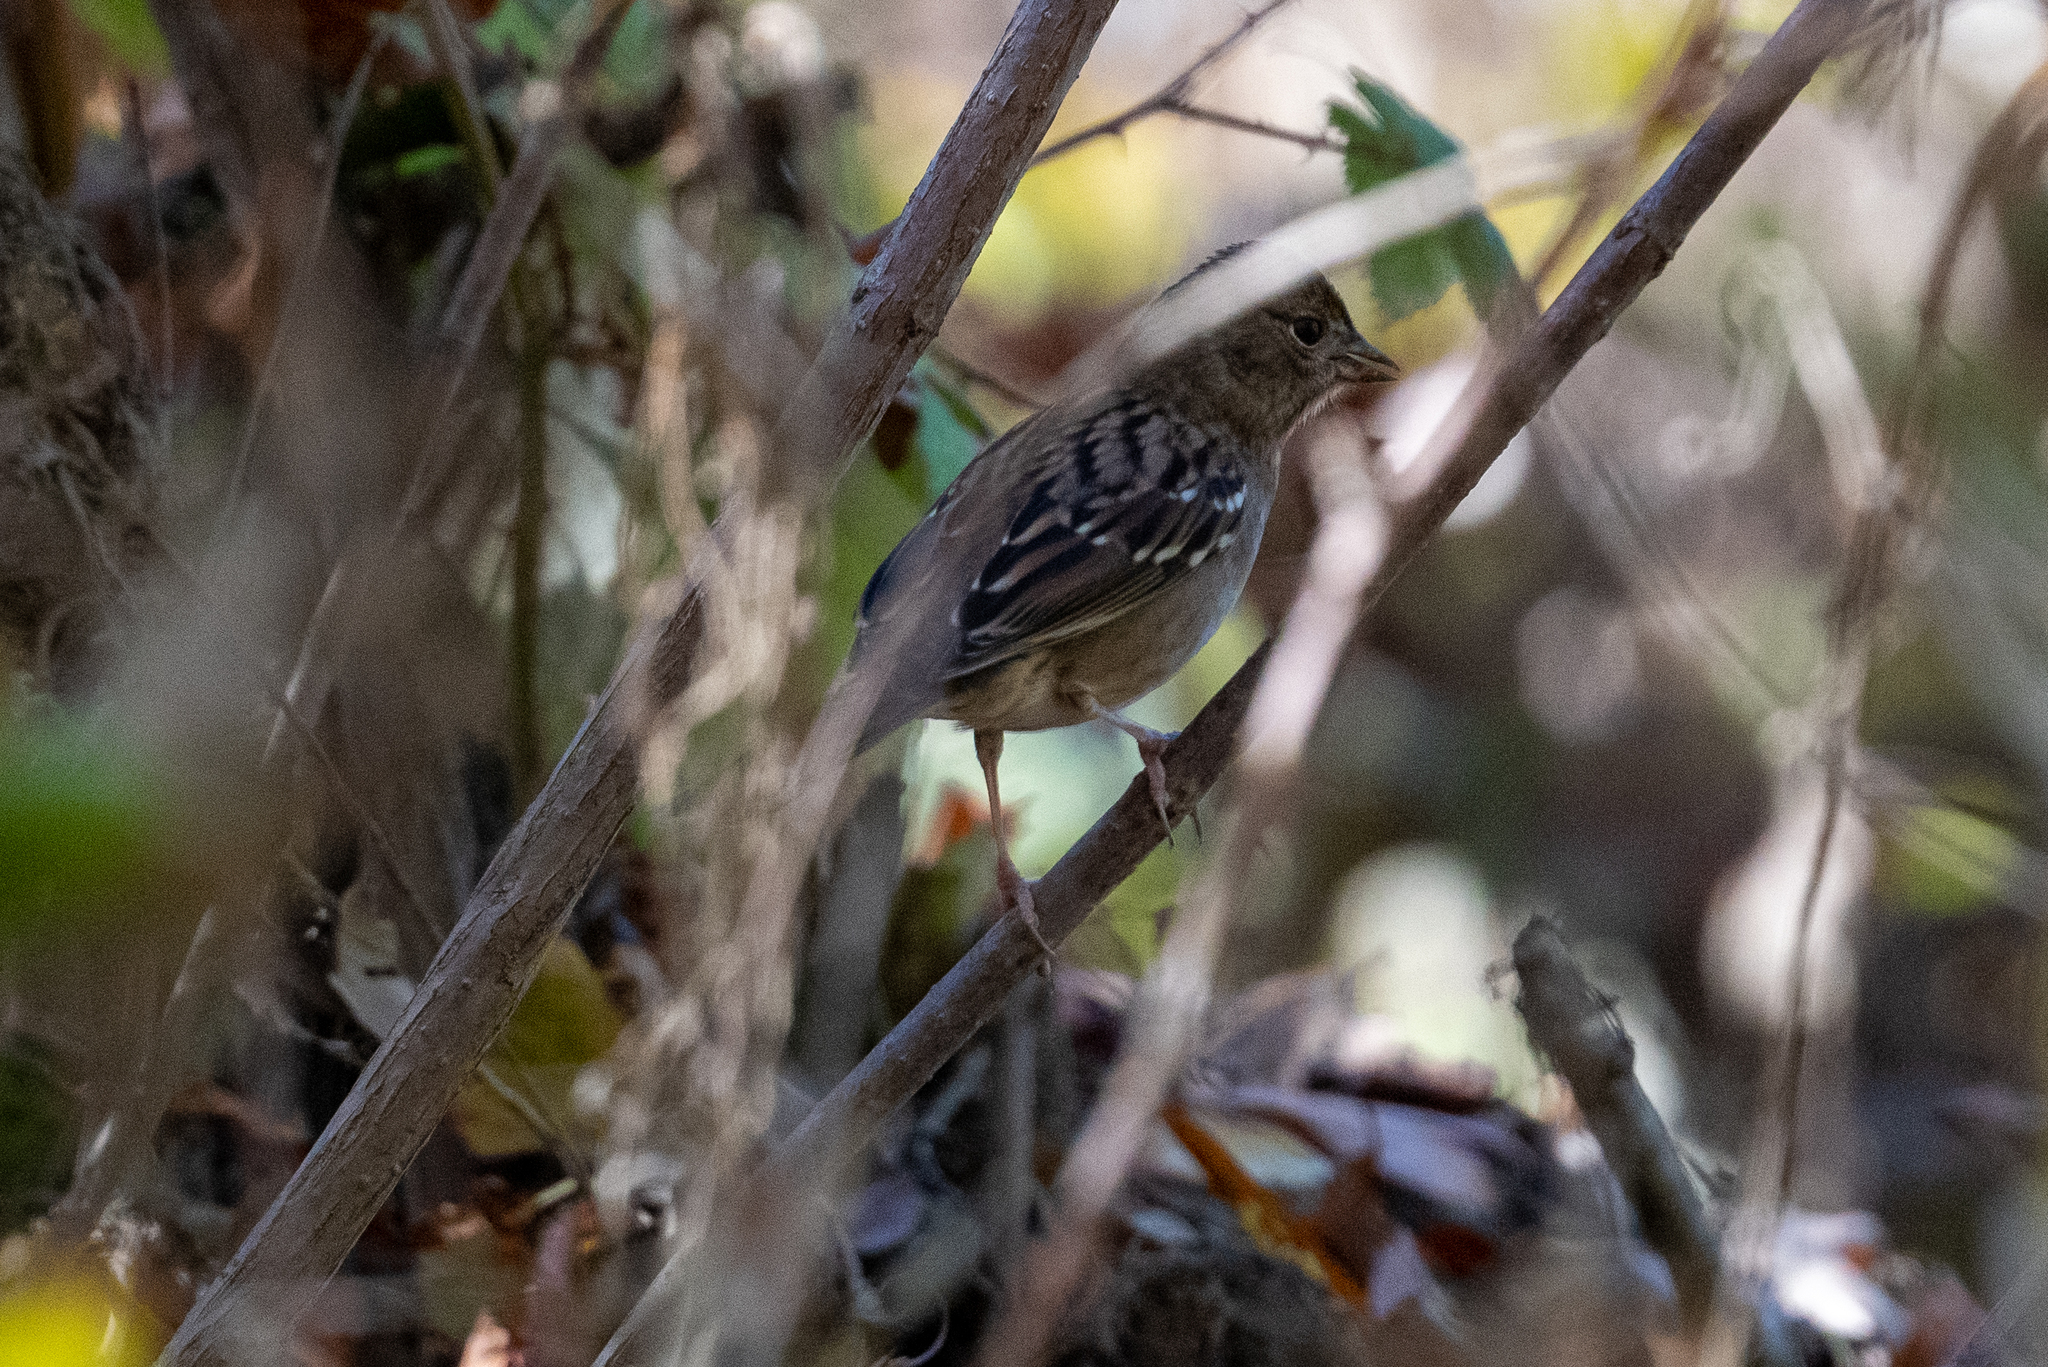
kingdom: Animalia
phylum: Chordata
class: Aves
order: Passeriformes
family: Passerellidae
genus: Zonotrichia
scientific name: Zonotrichia atricapilla
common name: Golden-crowned sparrow
